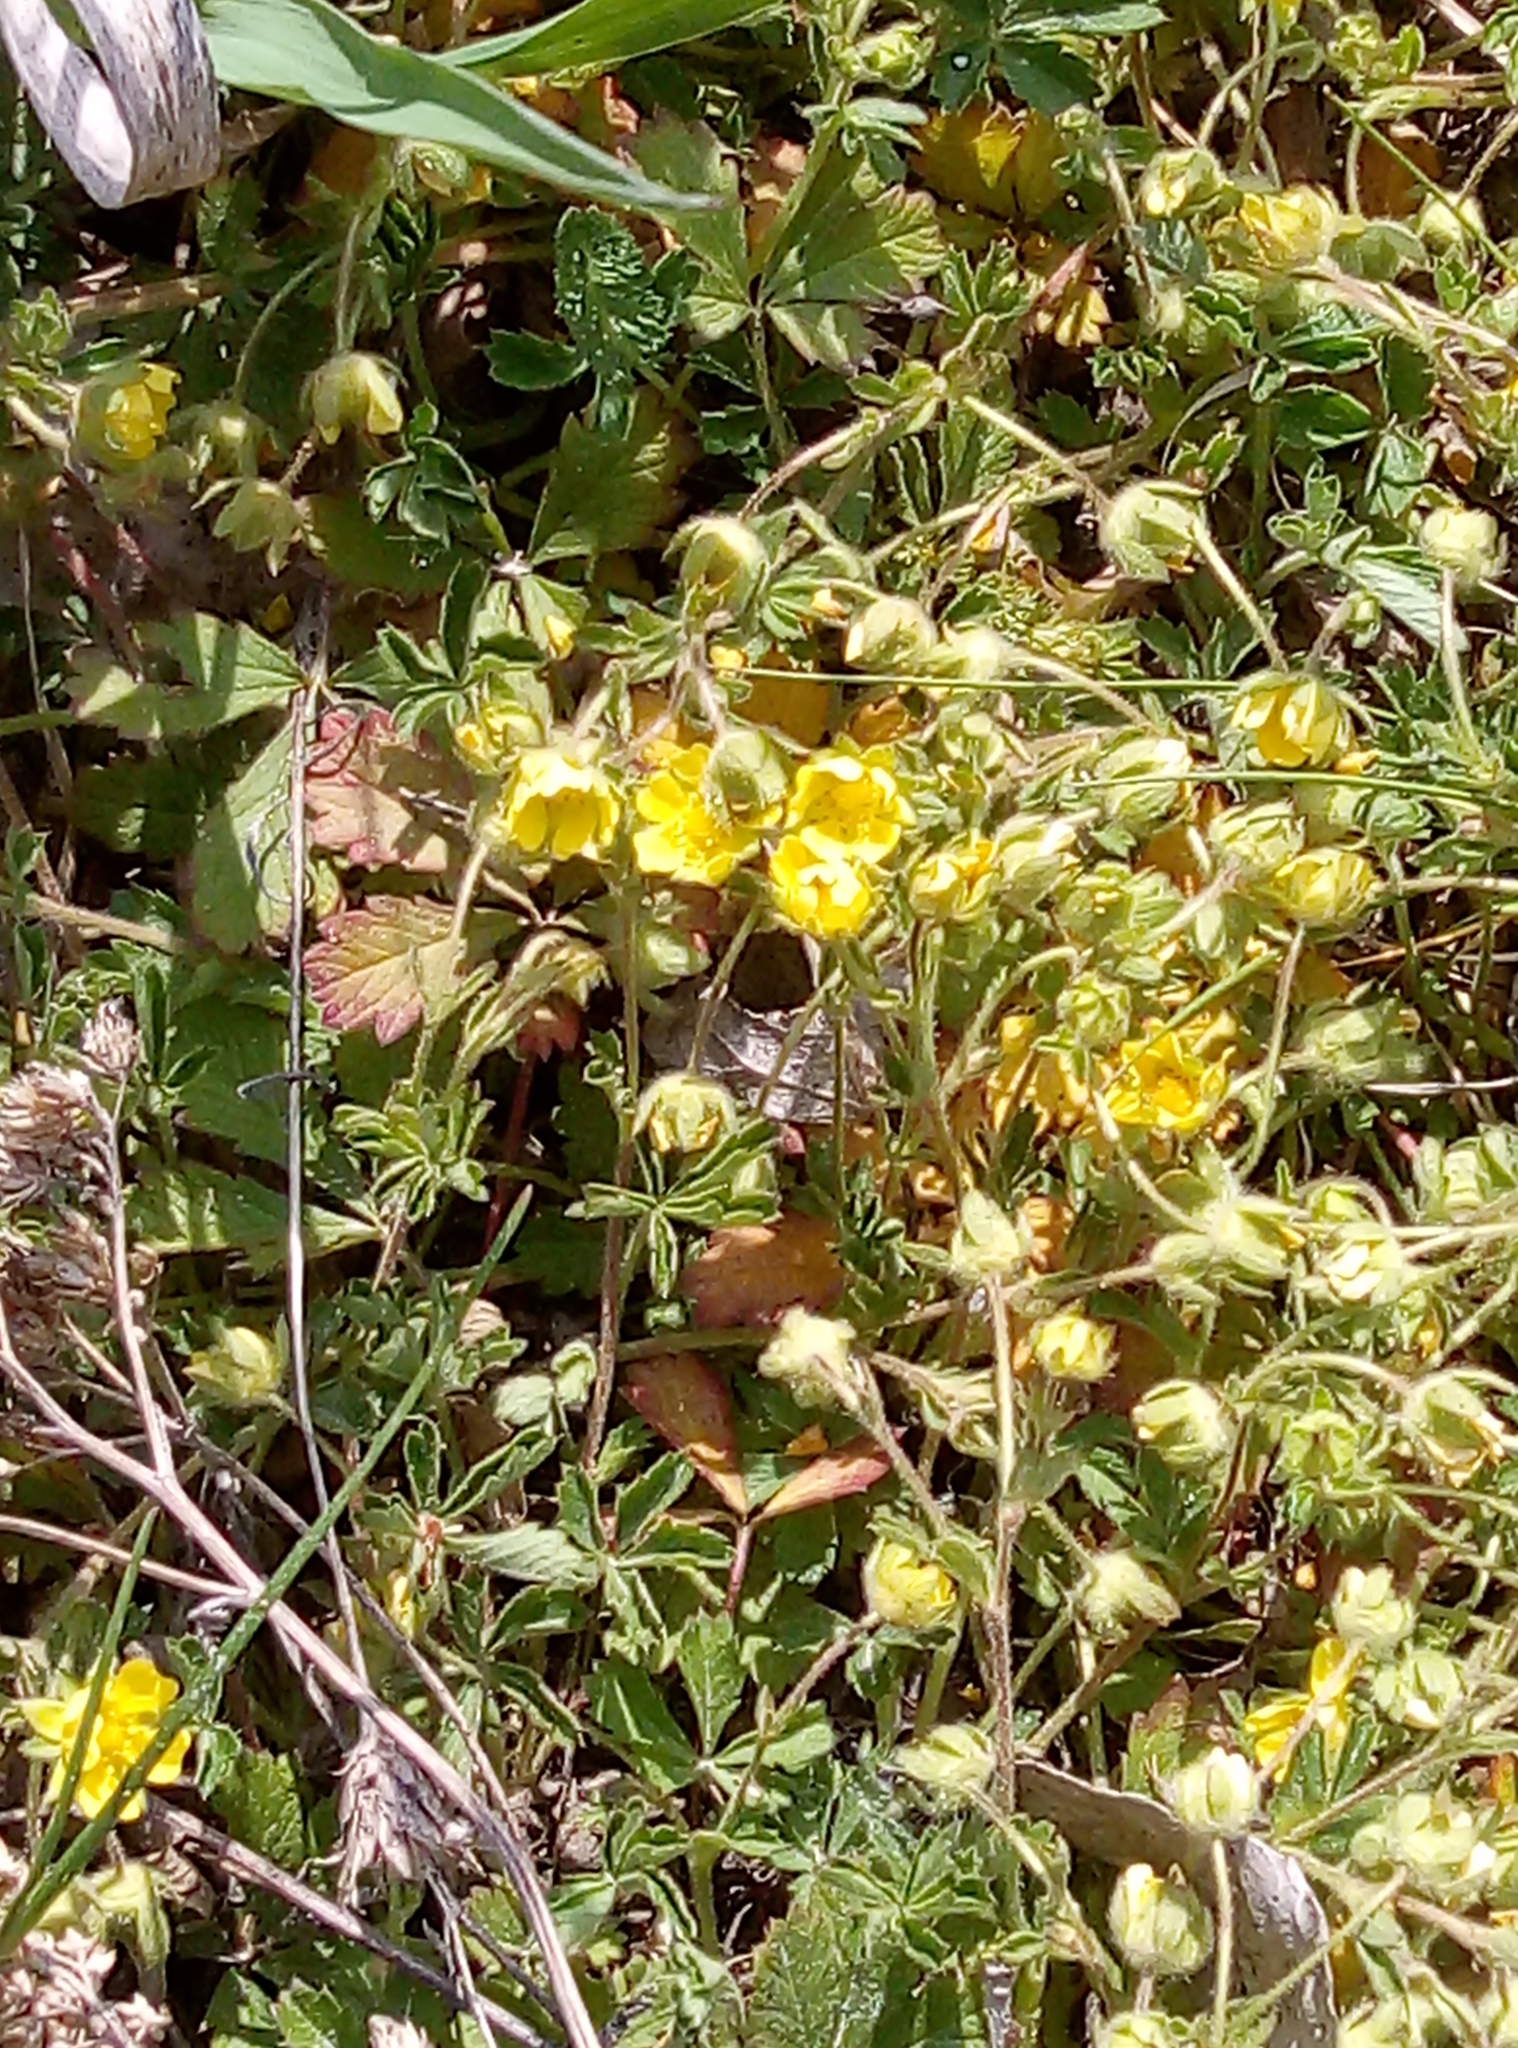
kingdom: Plantae
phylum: Tracheophyta
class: Magnoliopsida
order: Rosales
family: Rosaceae
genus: Potentilla
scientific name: Potentilla verna
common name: Spring cinquefoil
